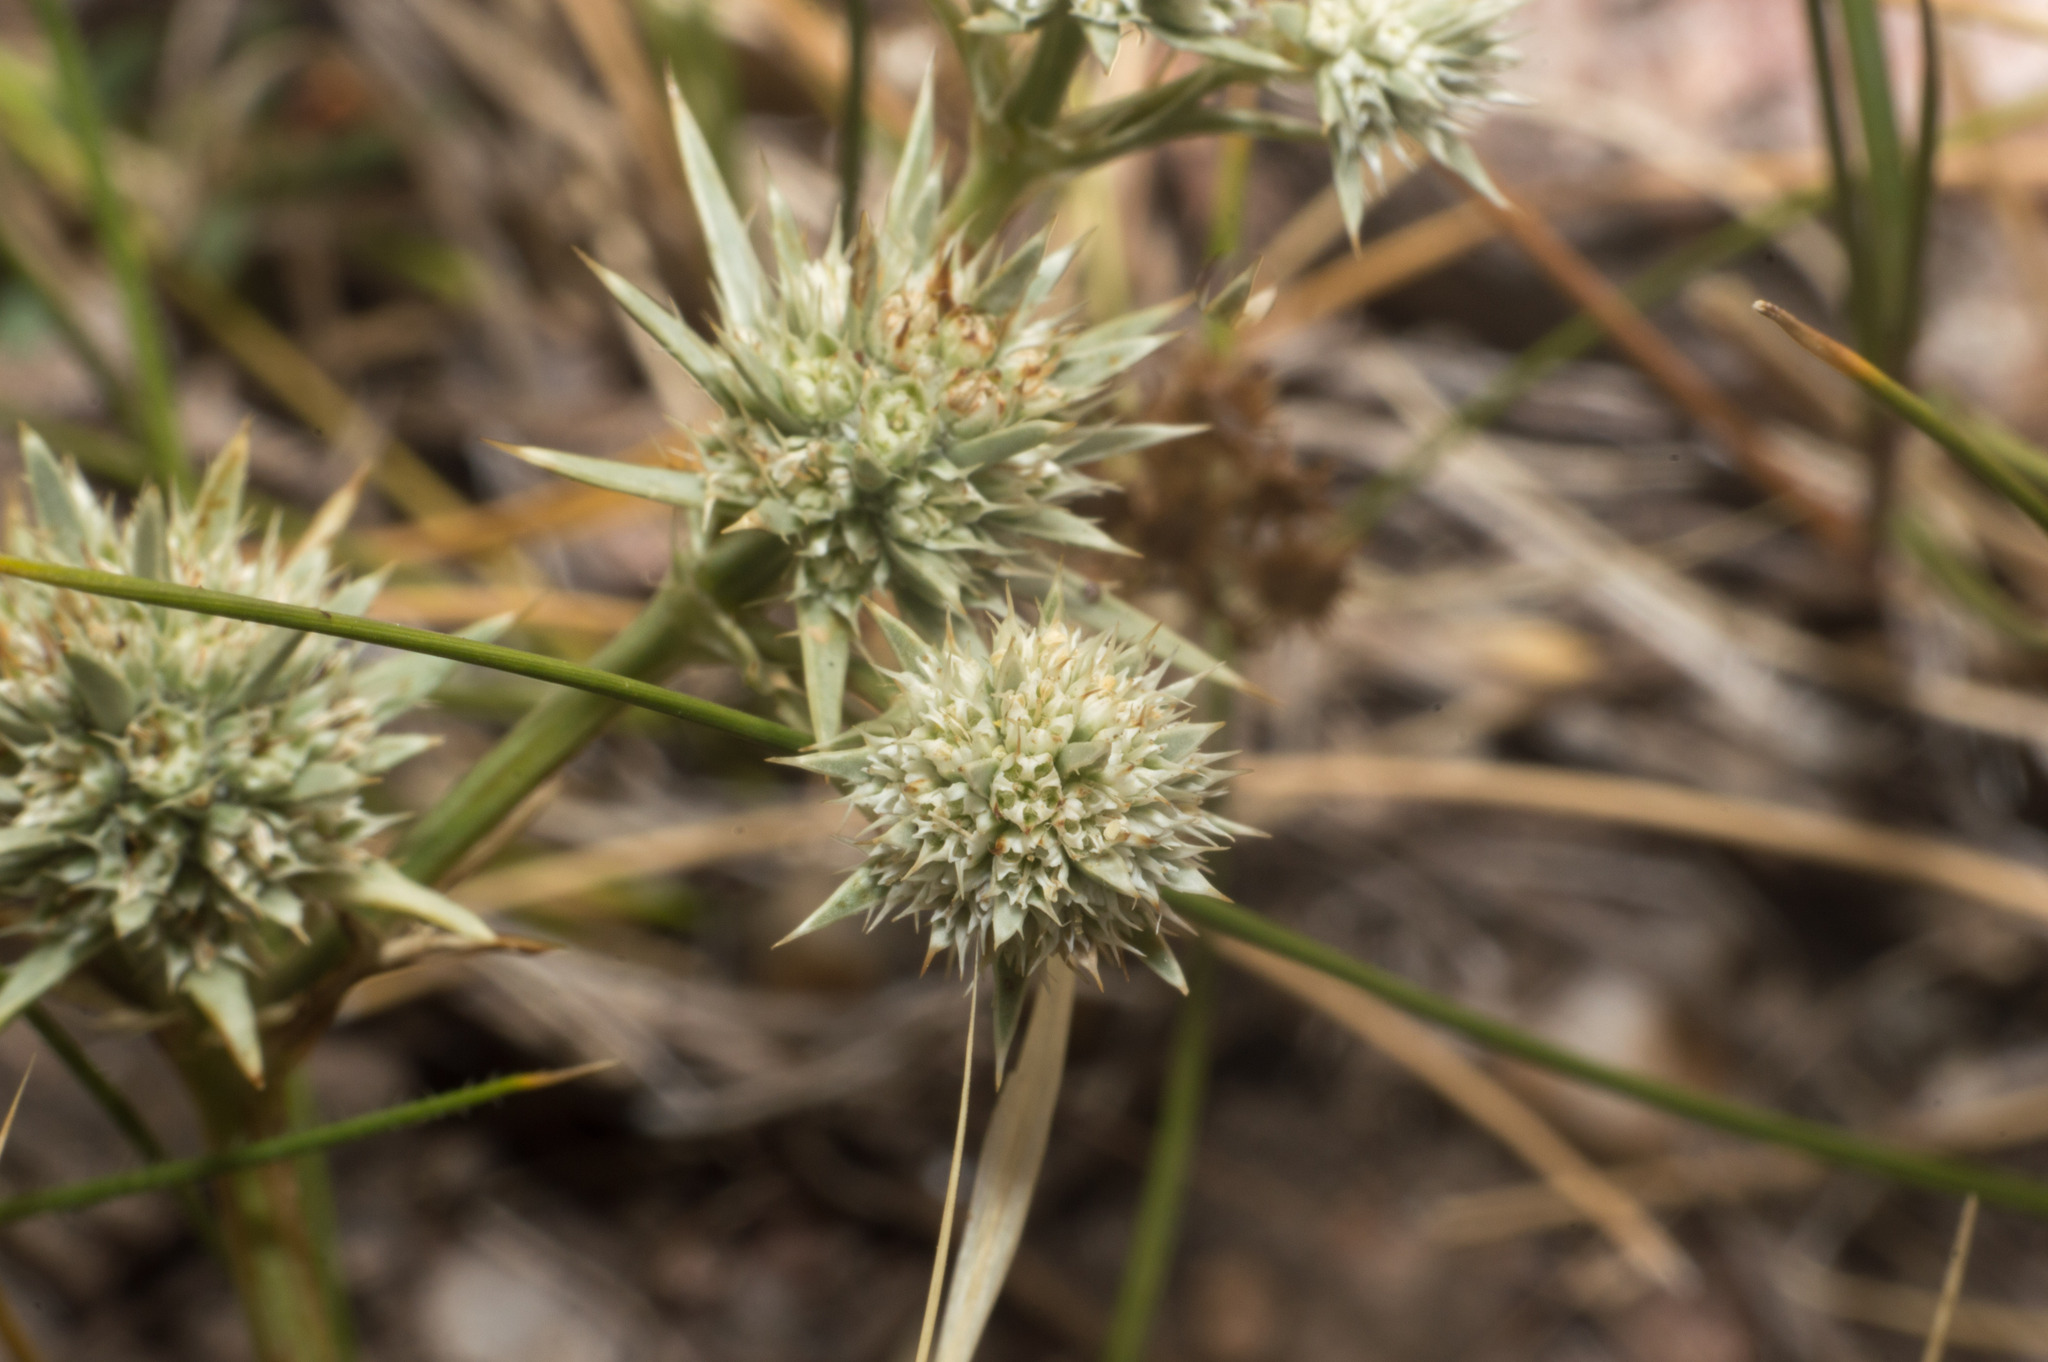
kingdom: Plantae
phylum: Tracheophyta
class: Magnoliopsida
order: Apiales
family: Apiaceae
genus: Eryngium
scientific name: Eryngium nudicaule
